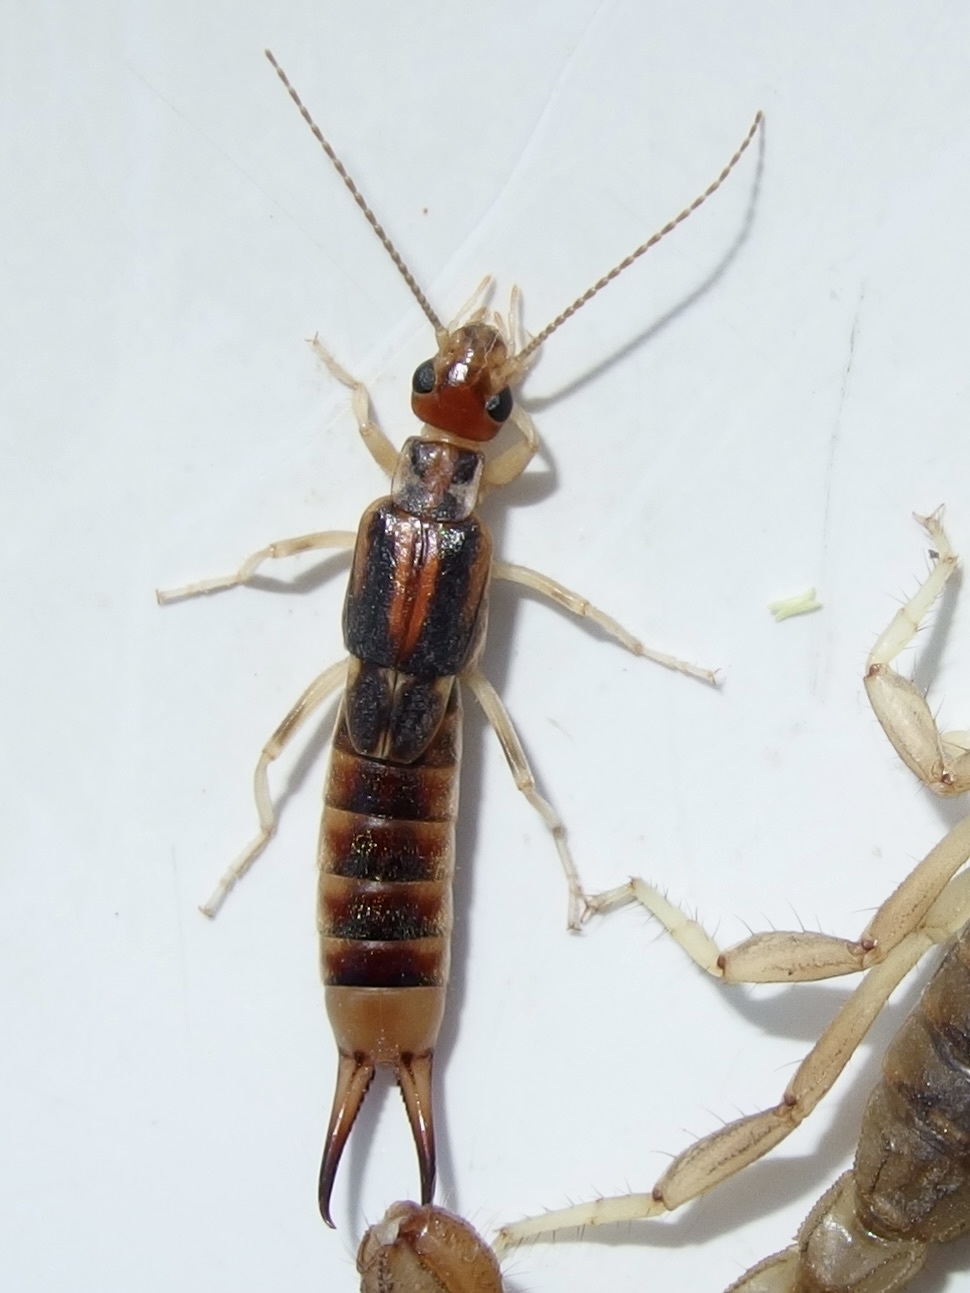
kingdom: Animalia
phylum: Arthropoda
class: Insecta
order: Dermaptera
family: Labiduridae
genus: Labidura
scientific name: Labidura riparia
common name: Striped earwig
